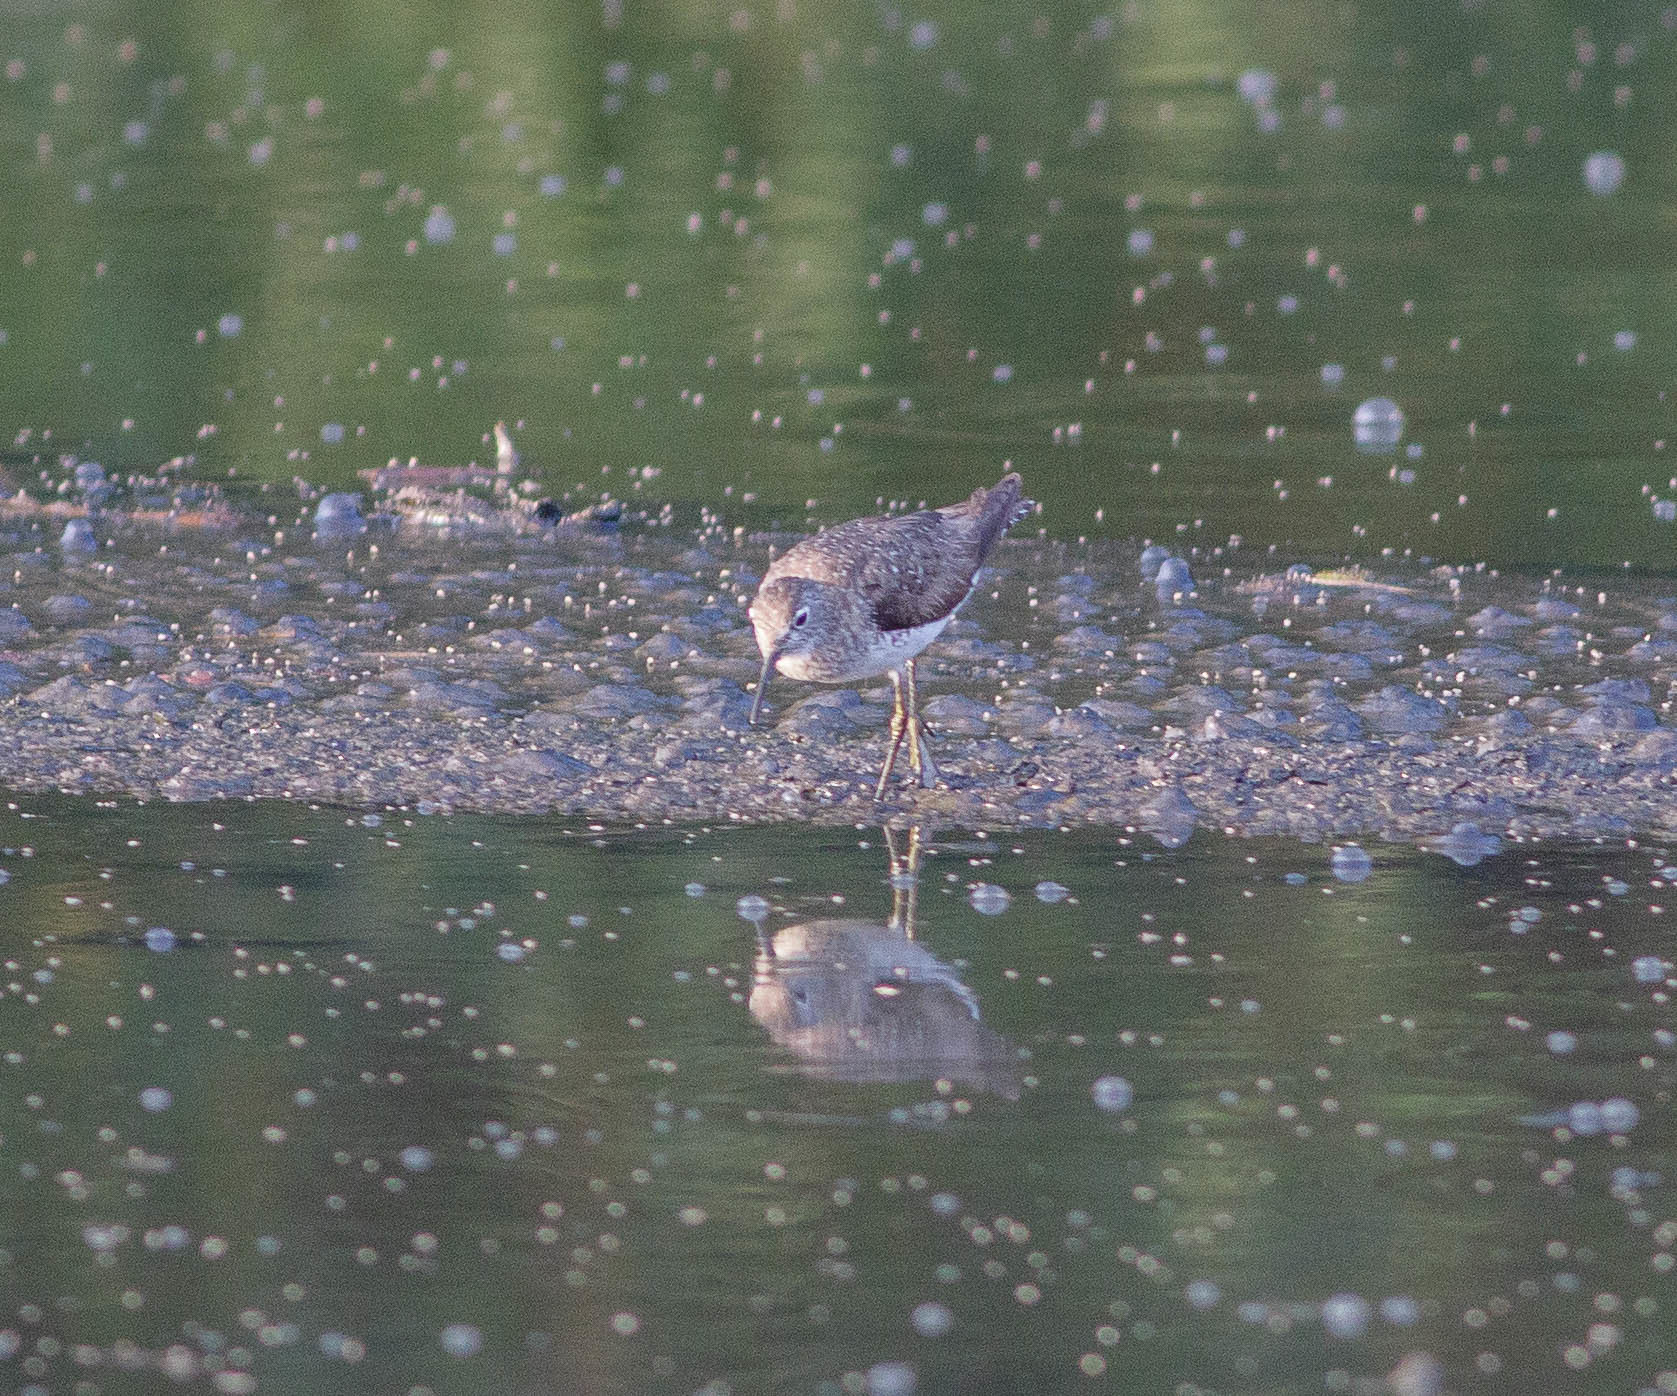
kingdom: Animalia
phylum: Chordata
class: Aves
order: Charadriiformes
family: Scolopacidae
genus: Tringa
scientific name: Tringa solitaria
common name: Solitary sandpiper
